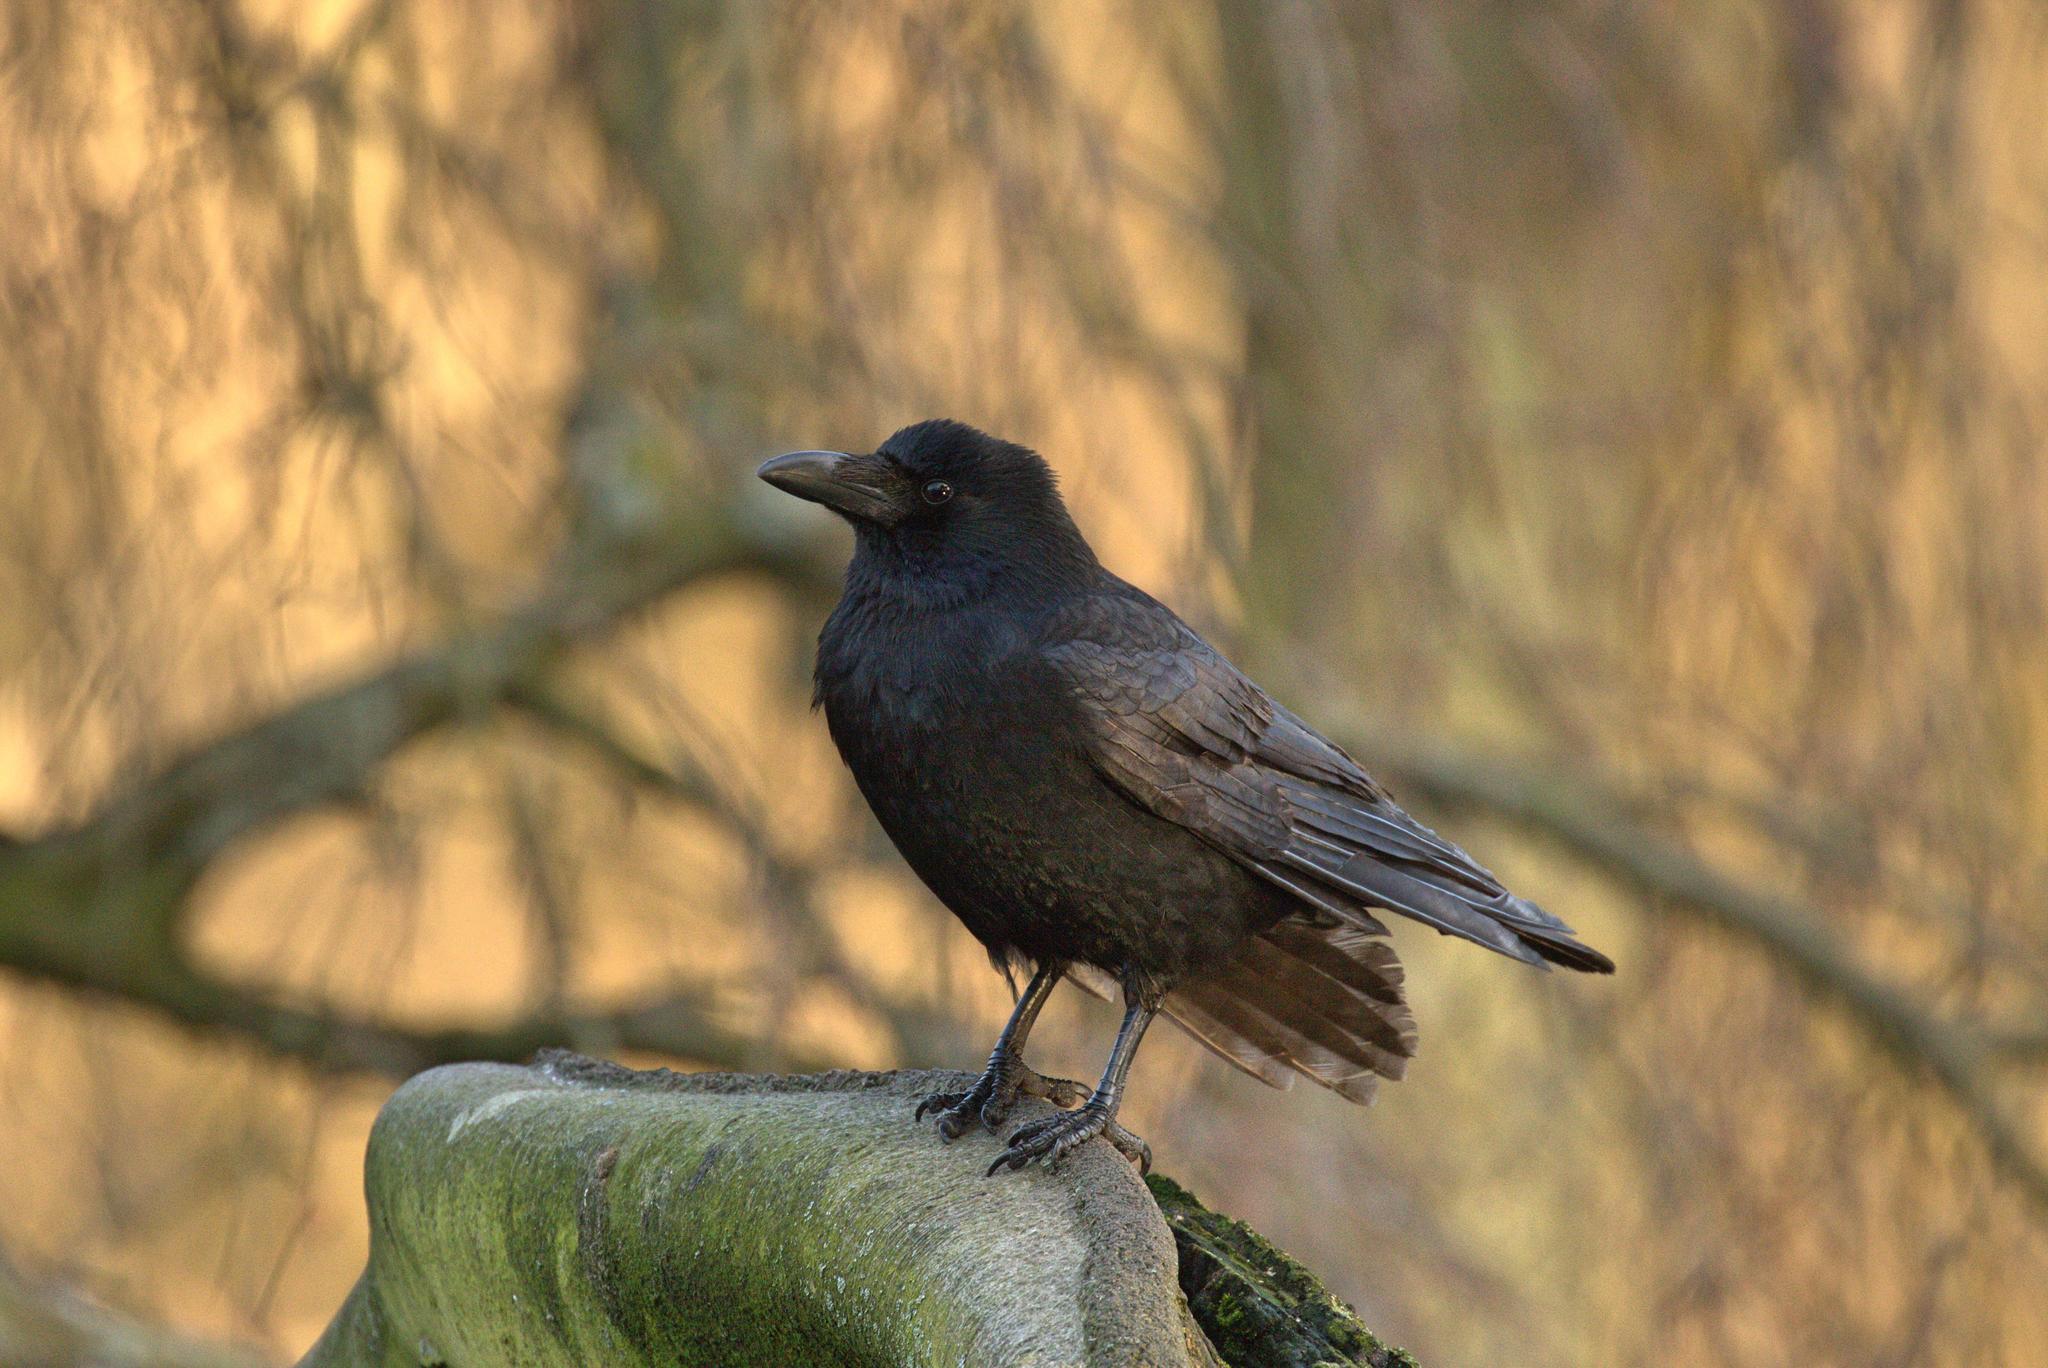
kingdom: Animalia
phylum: Chordata
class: Aves
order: Passeriformes
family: Corvidae
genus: Corvus
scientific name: Corvus corone
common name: Carrion crow
